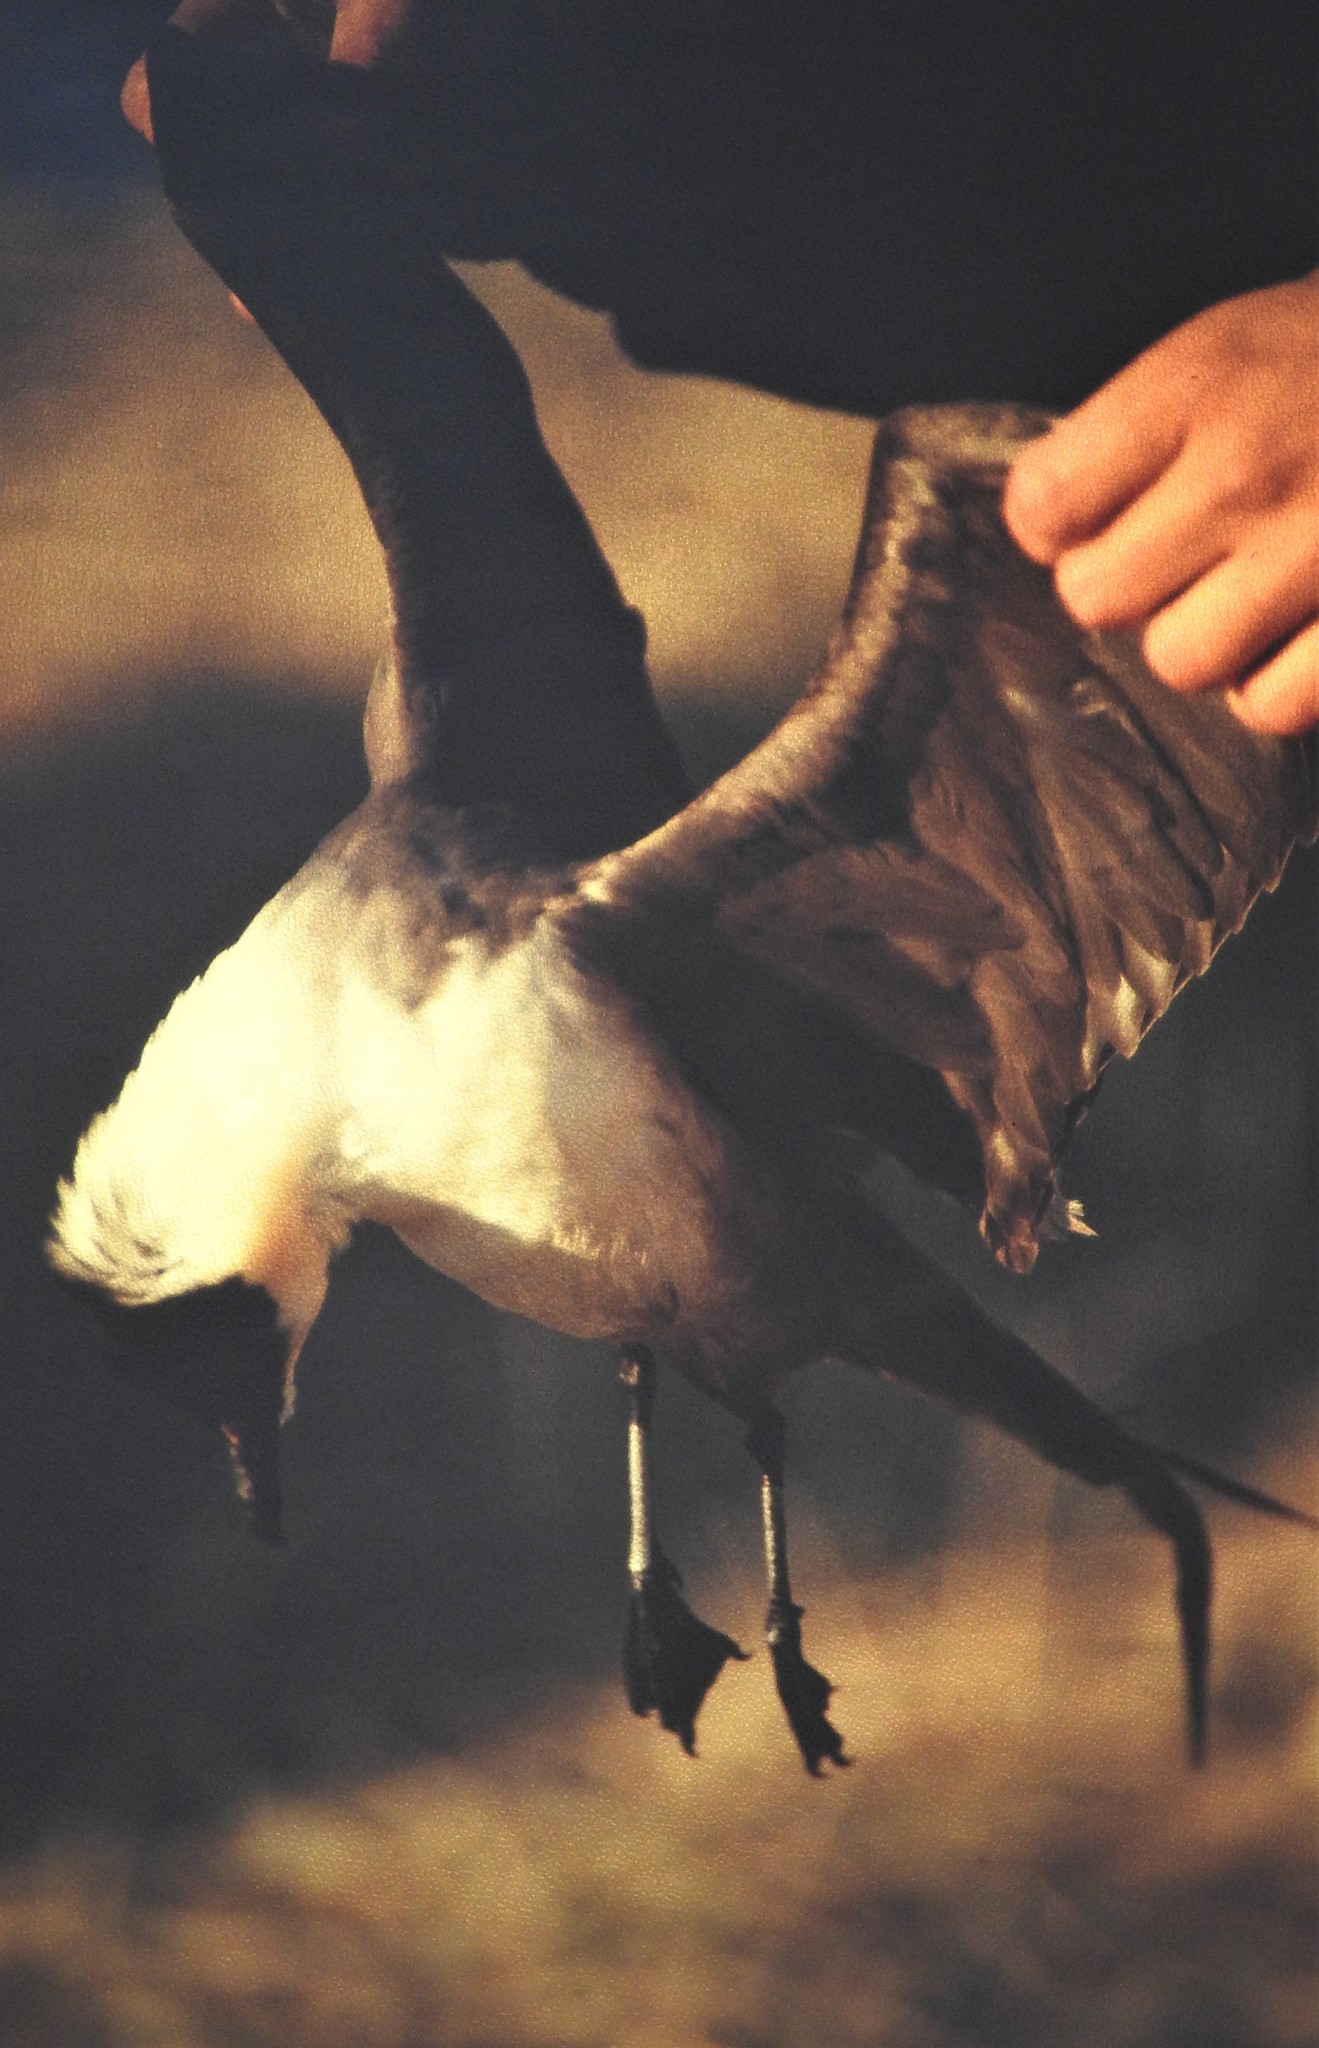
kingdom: Animalia
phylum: Chordata
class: Aves
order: Charadriiformes
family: Stercorariidae
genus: Stercorarius
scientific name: Stercorarius longicaudus
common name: Long-tailed jaeger
